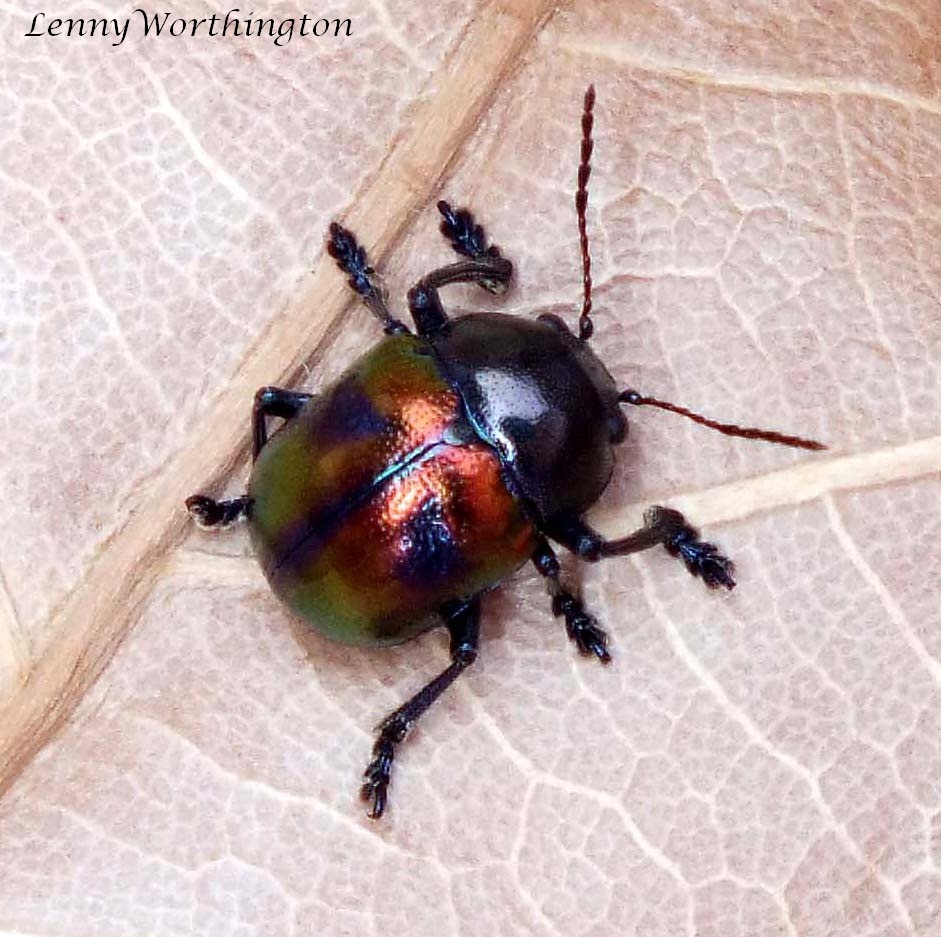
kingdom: Animalia
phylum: Arthropoda
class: Insecta
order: Coleoptera
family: Chrysomelidae
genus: Colasposoma
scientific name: Colasposoma viridicoeruleum
